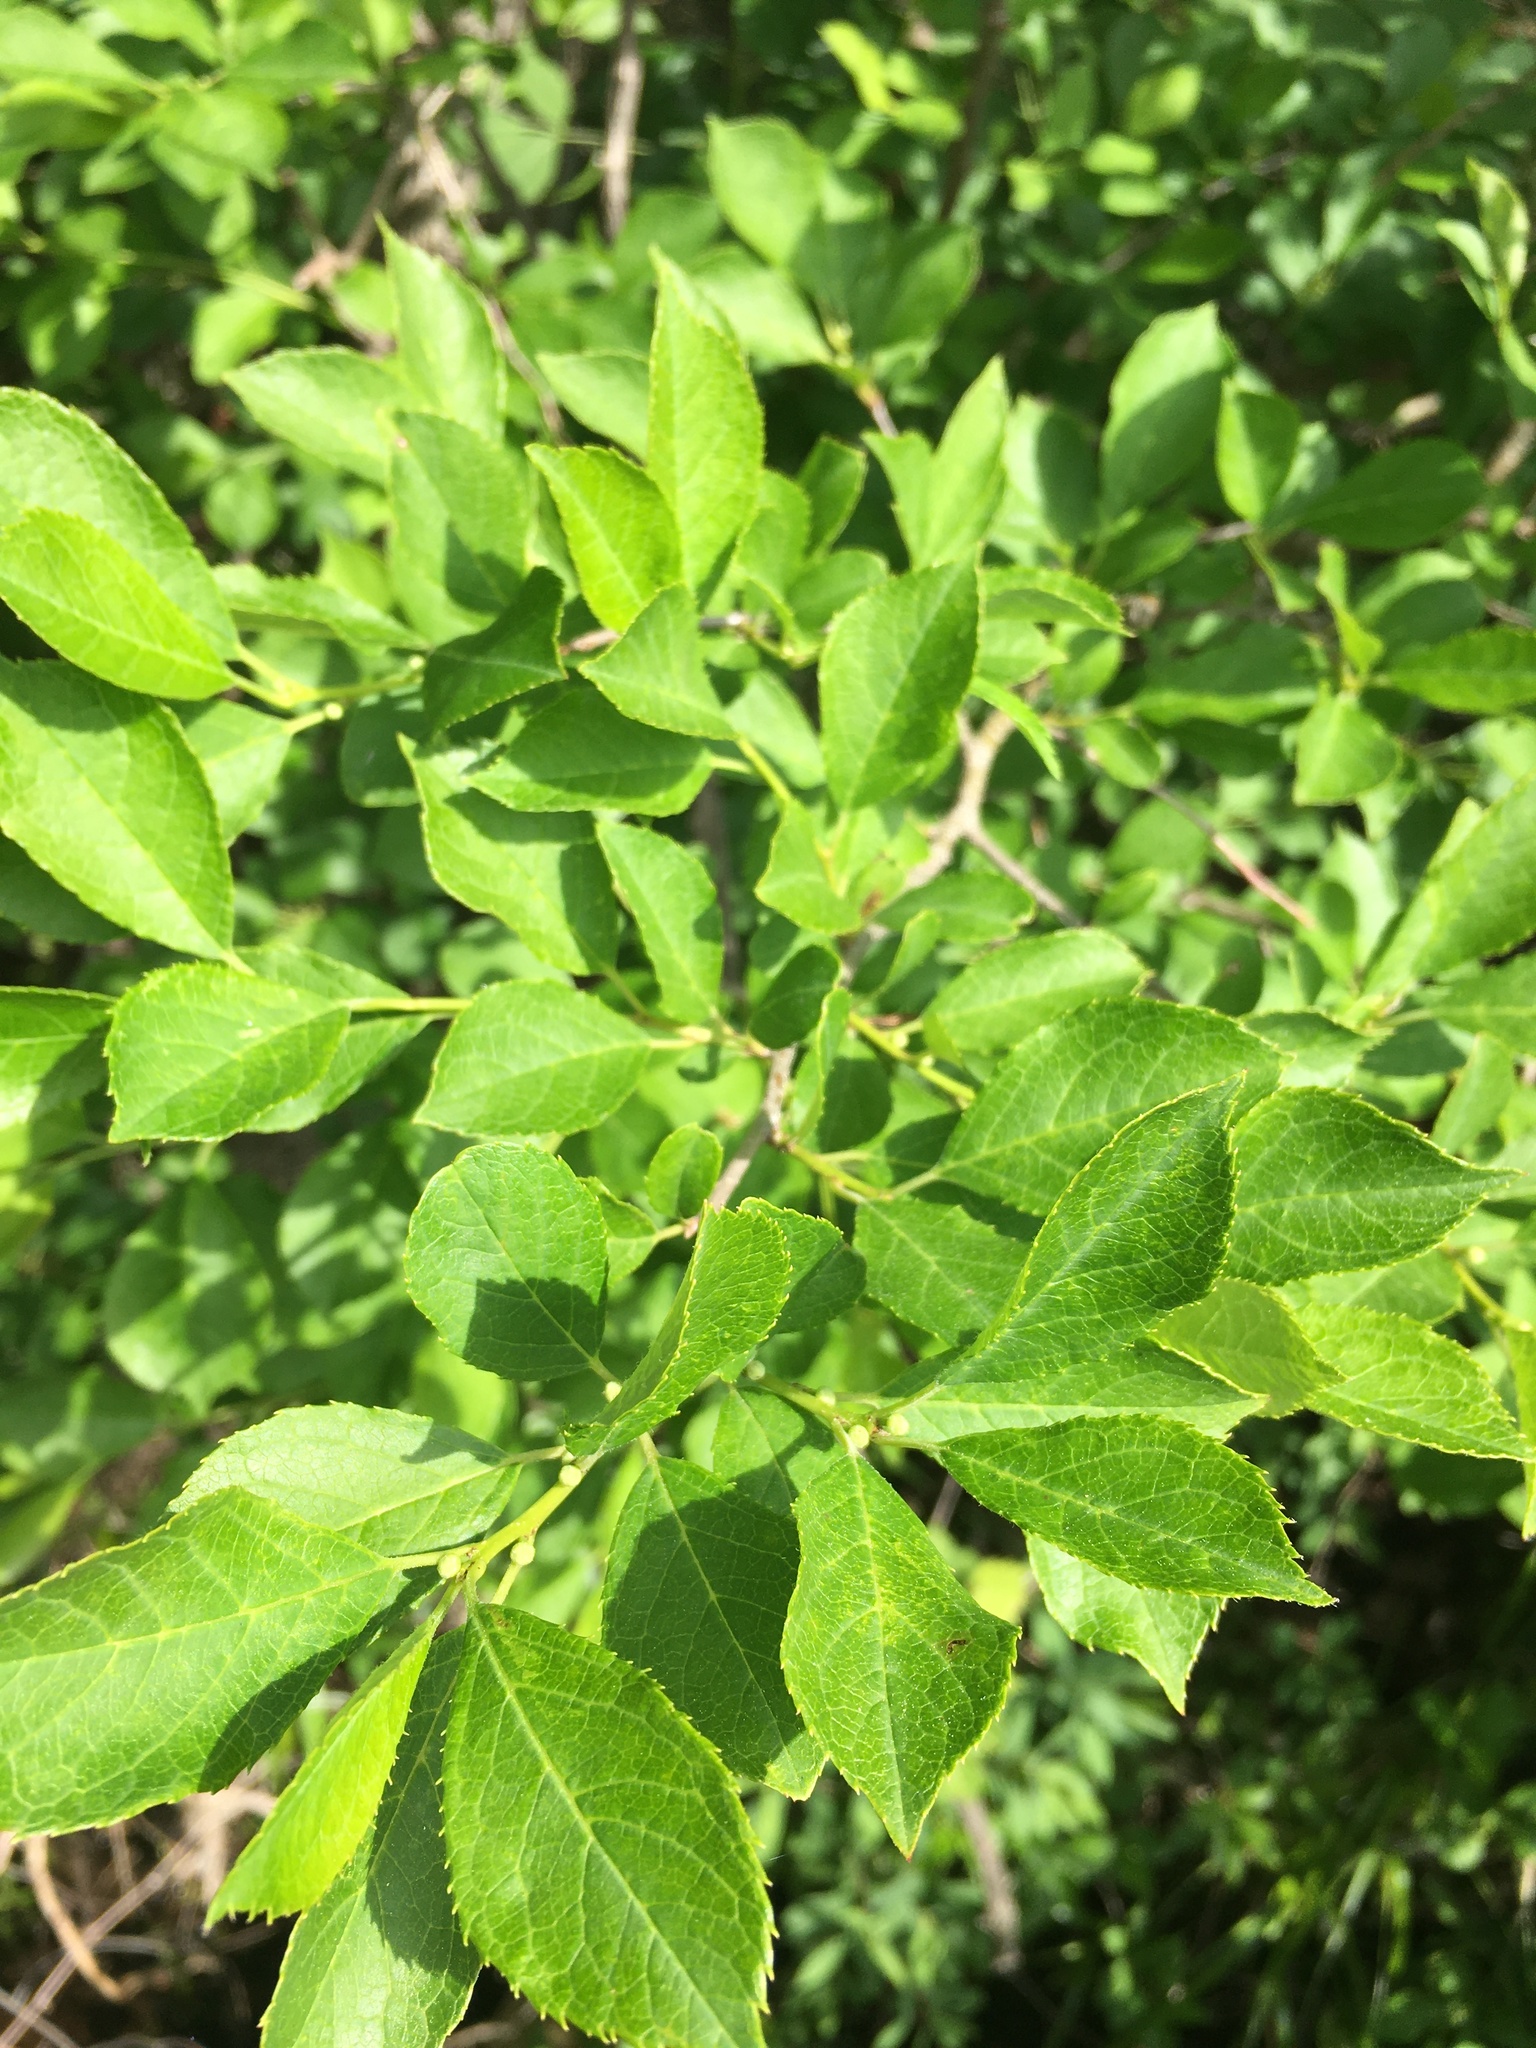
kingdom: Plantae
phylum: Tracheophyta
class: Magnoliopsida
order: Aquifoliales
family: Aquifoliaceae
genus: Ilex
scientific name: Ilex verticillata
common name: Virginia winterberry
